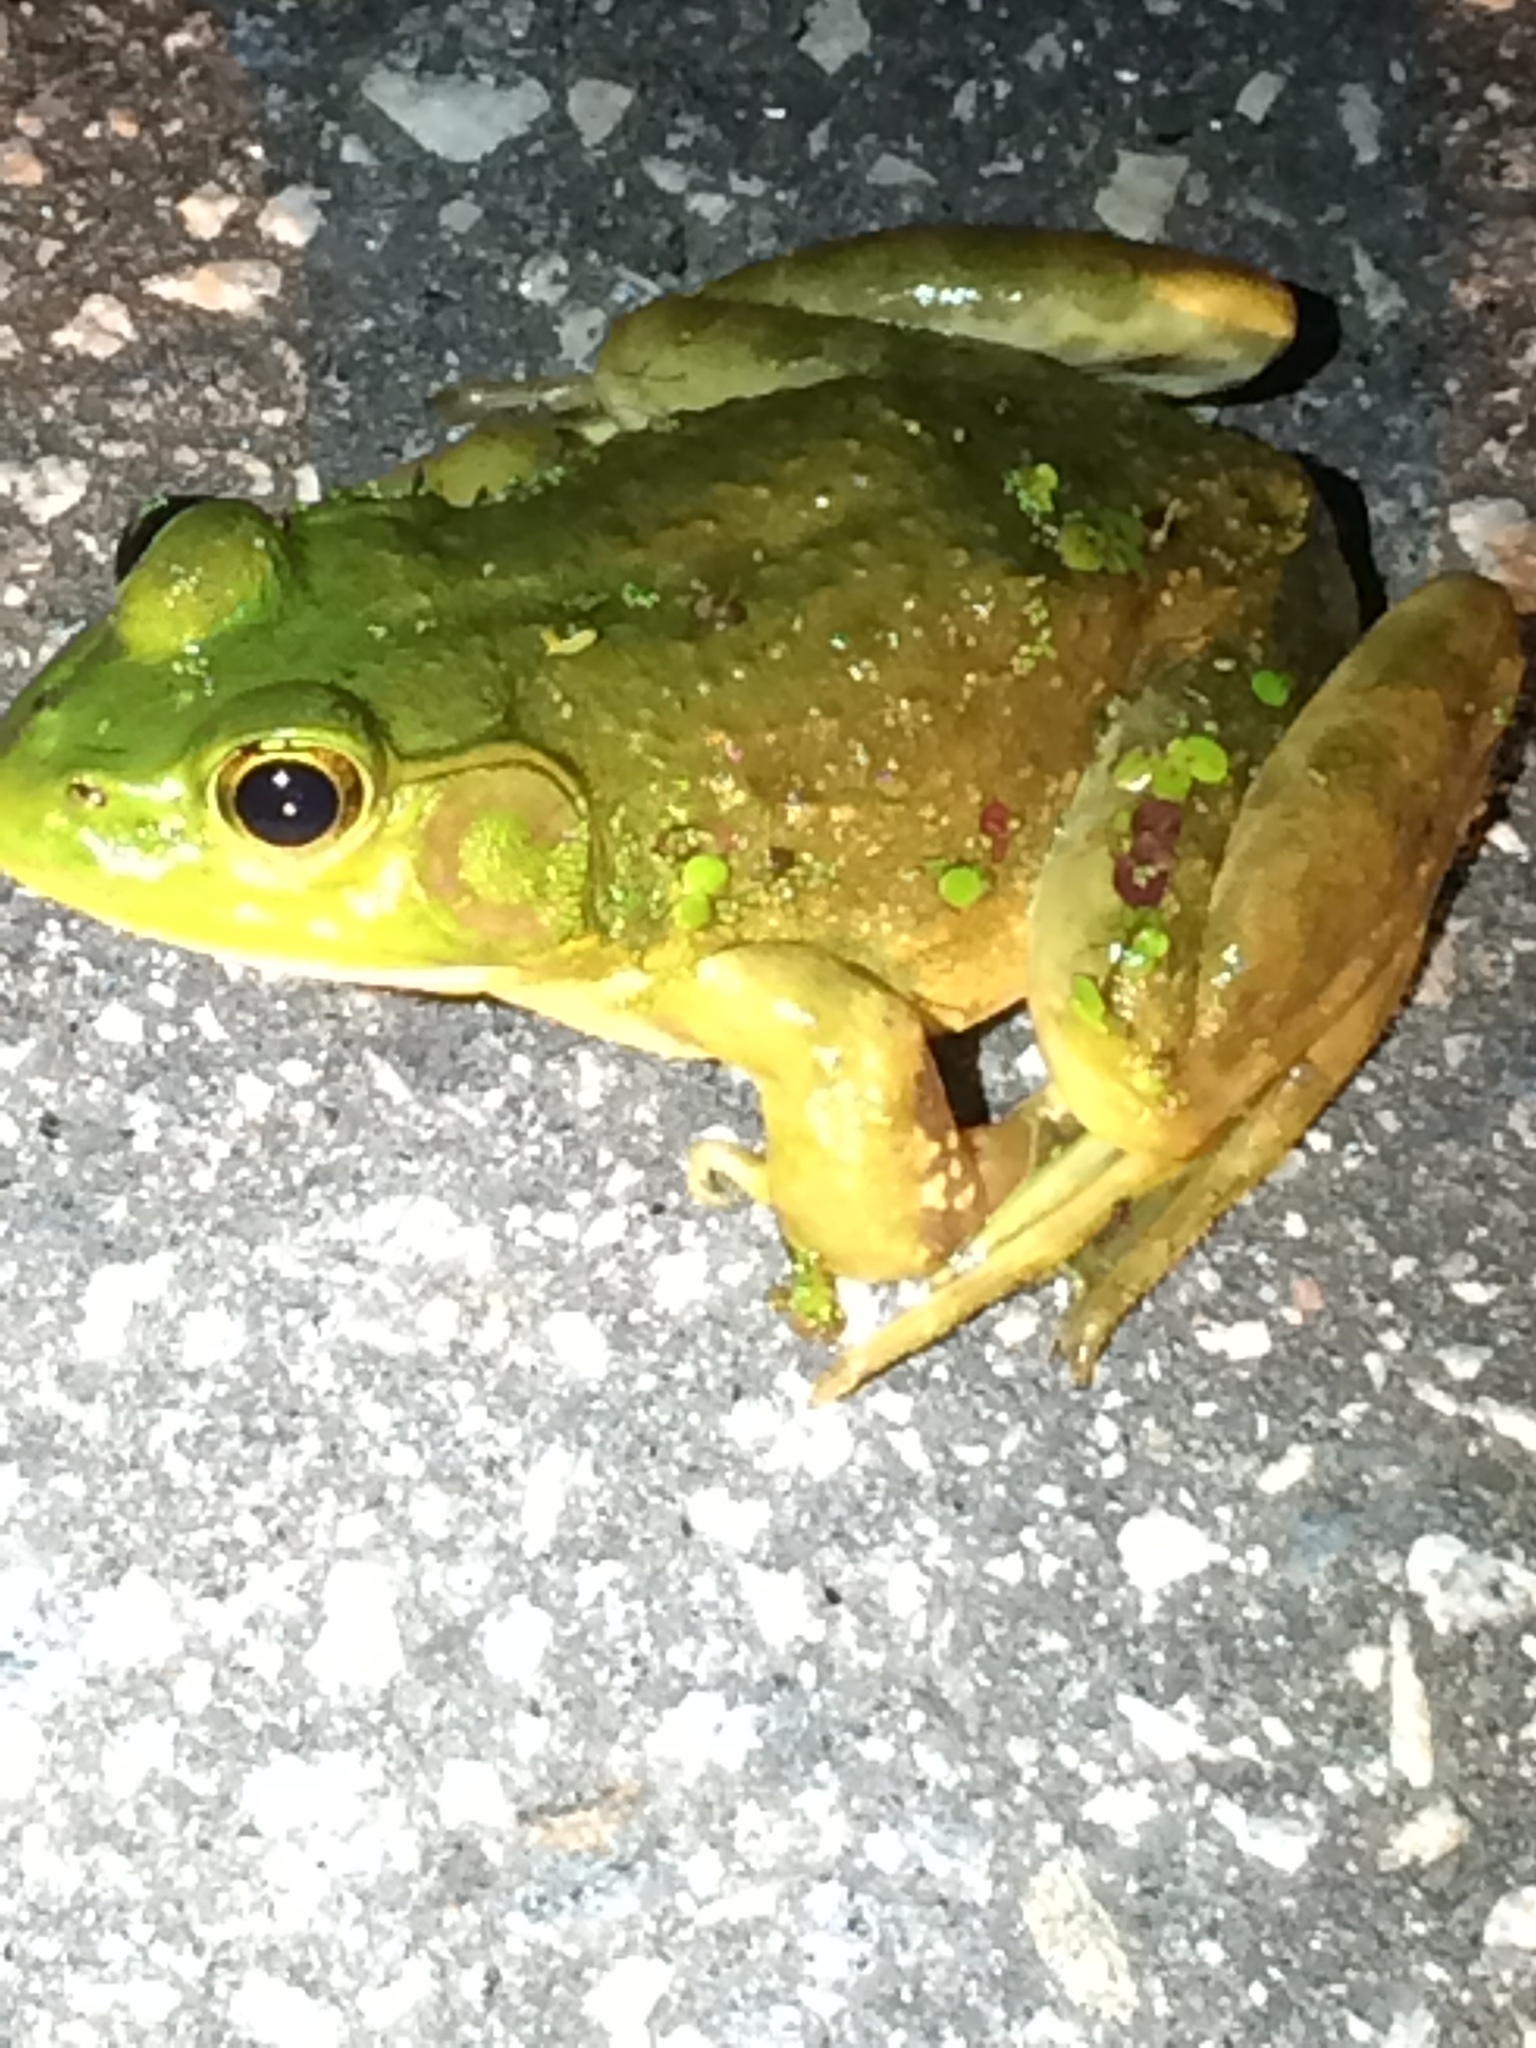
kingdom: Animalia
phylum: Chordata
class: Amphibia
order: Anura
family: Ranidae
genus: Lithobates
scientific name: Lithobates catesbeianus
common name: American bullfrog
